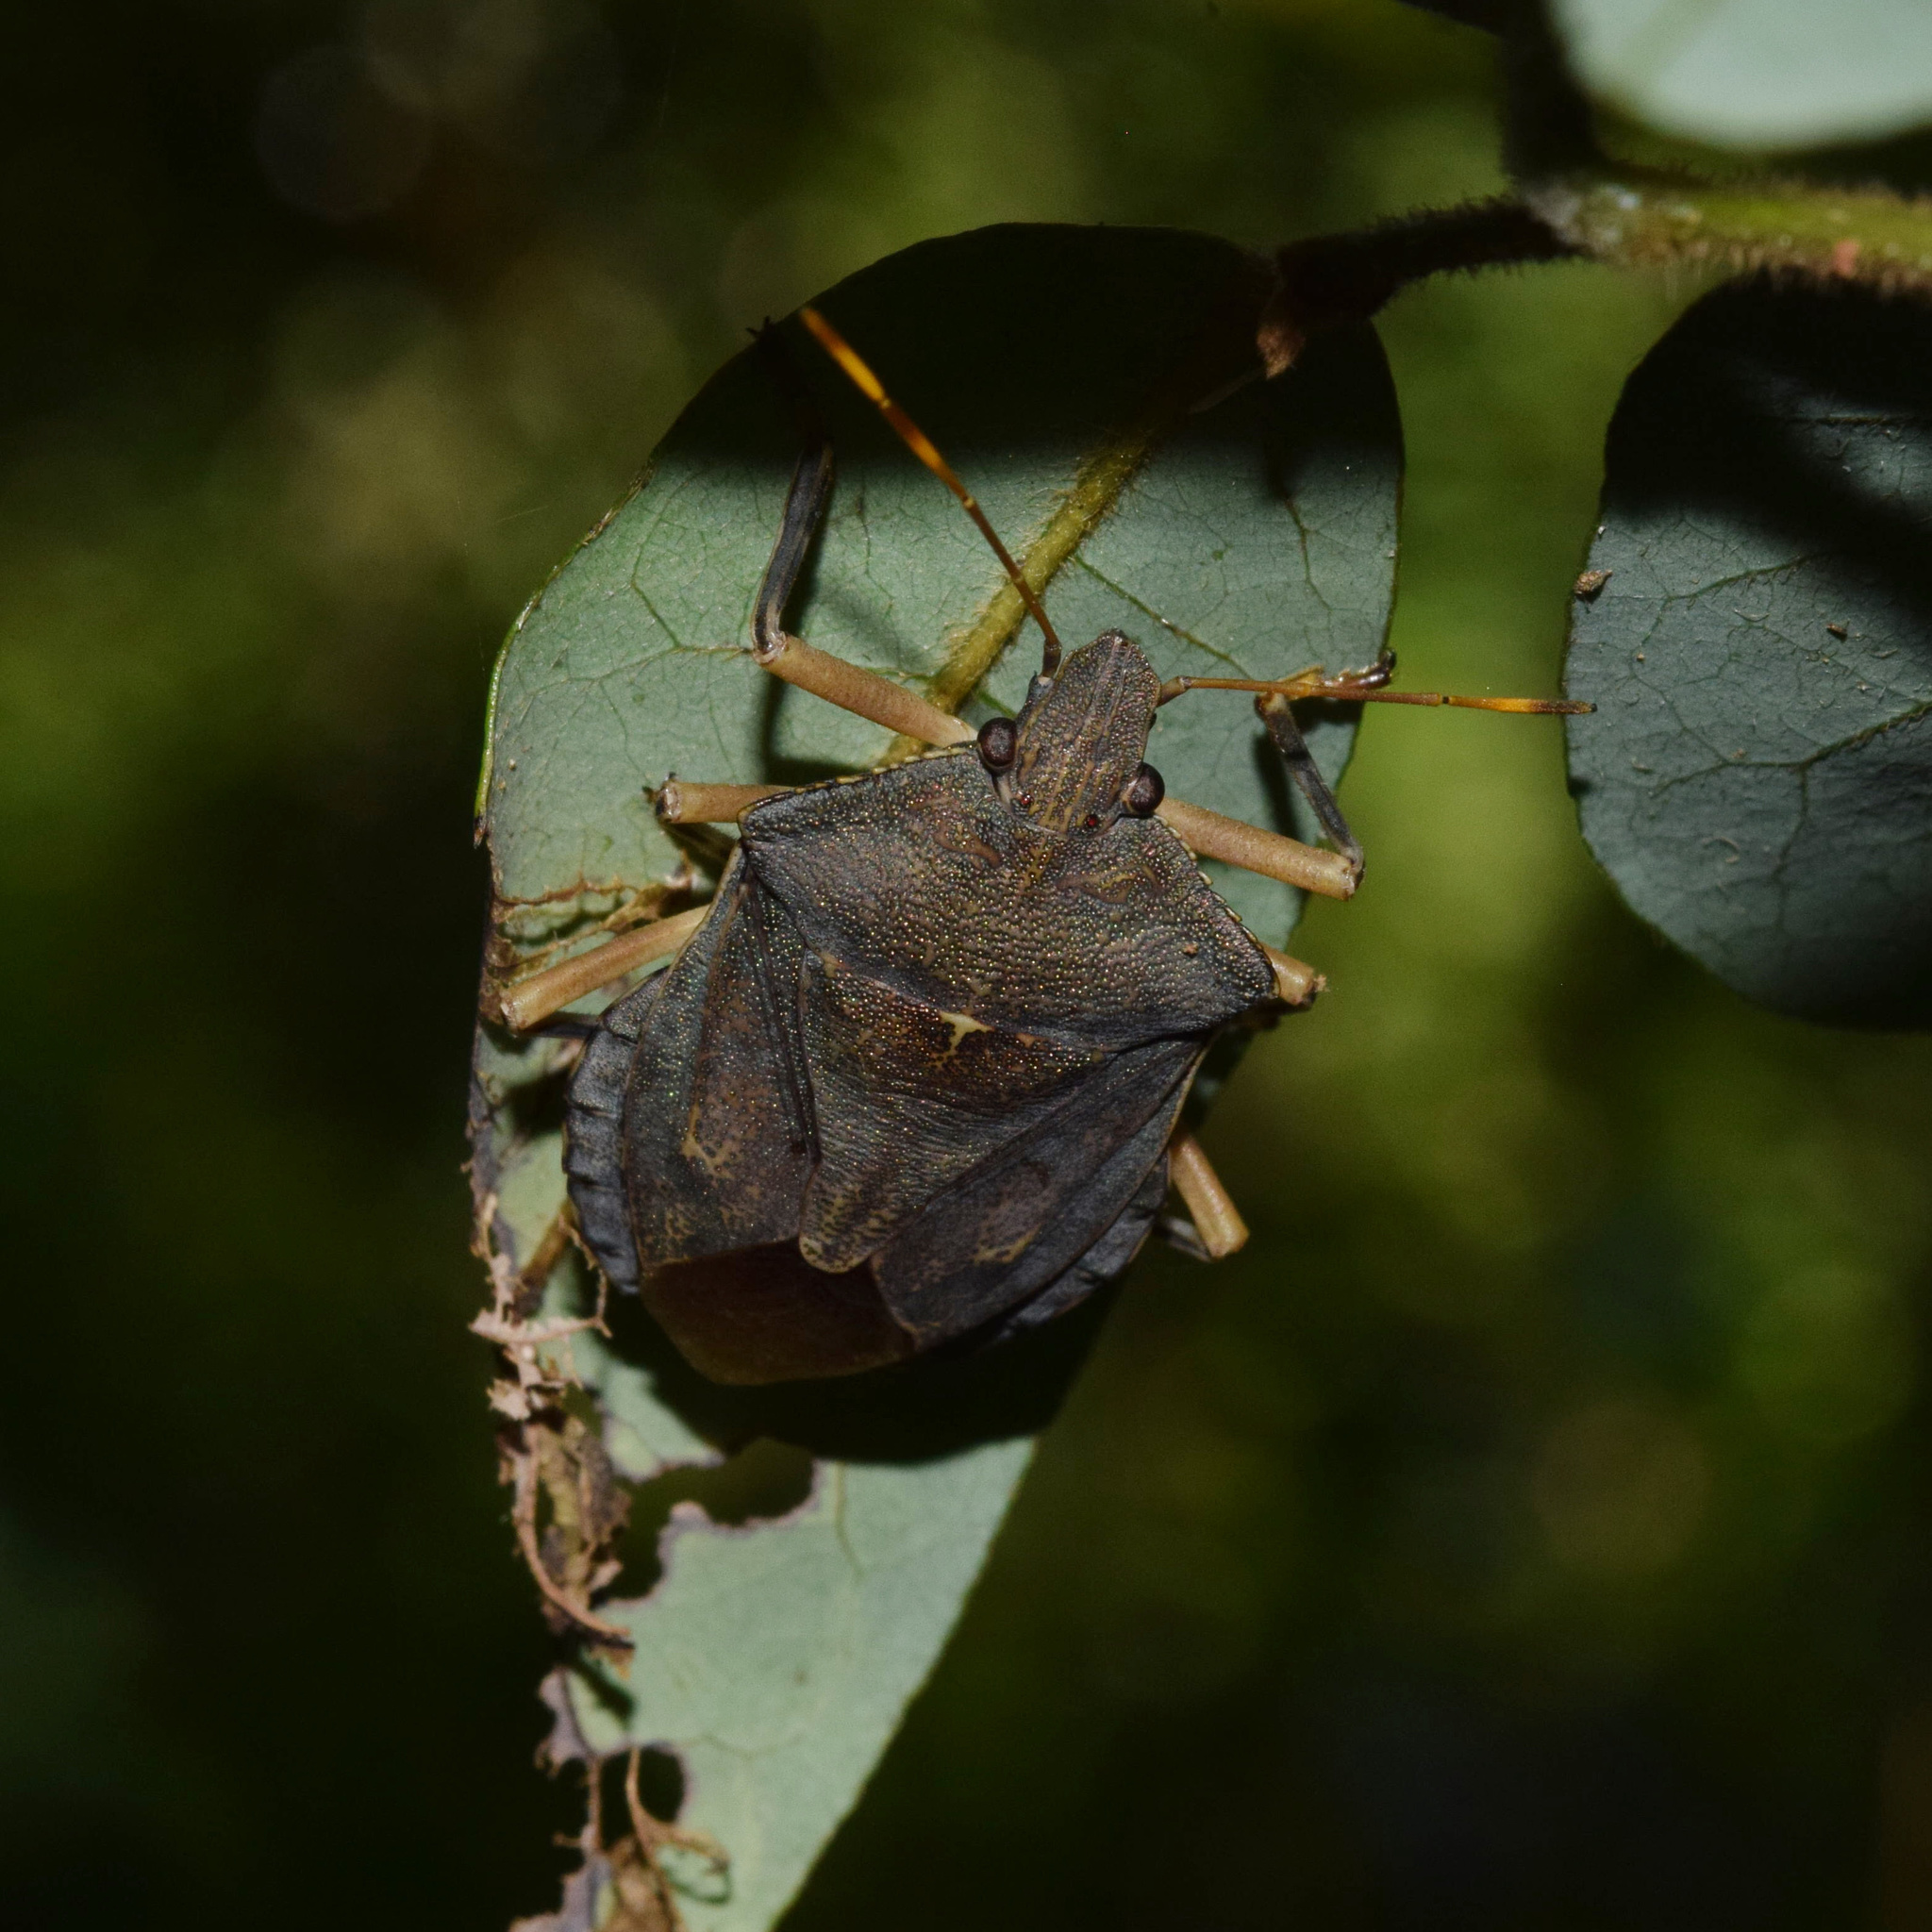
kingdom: Animalia
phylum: Arthropoda
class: Insecta
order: Hemiptera
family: Pentatomidae
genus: Coenomorpha
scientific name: Coenomorpha
